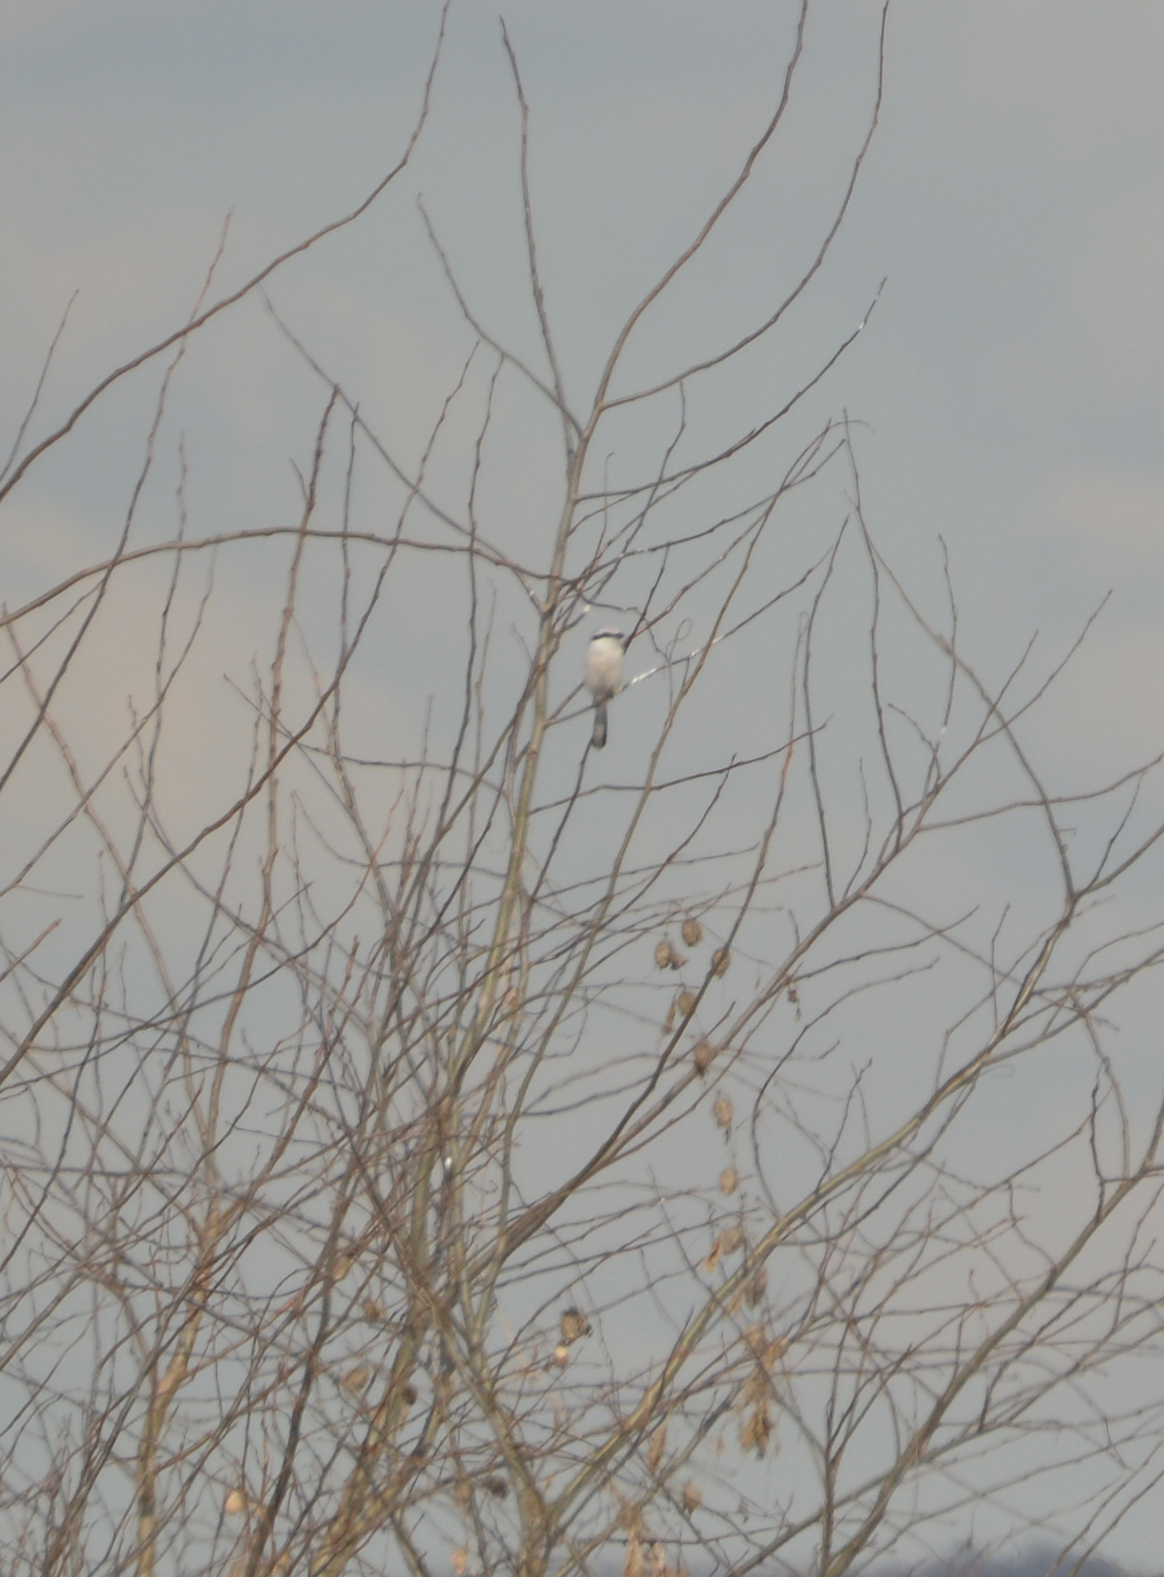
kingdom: Animalia
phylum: Chordata
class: Aves
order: Passeriformes
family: Laniidae
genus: Lanius
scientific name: Lanius excubitor
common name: Great grey shrike
